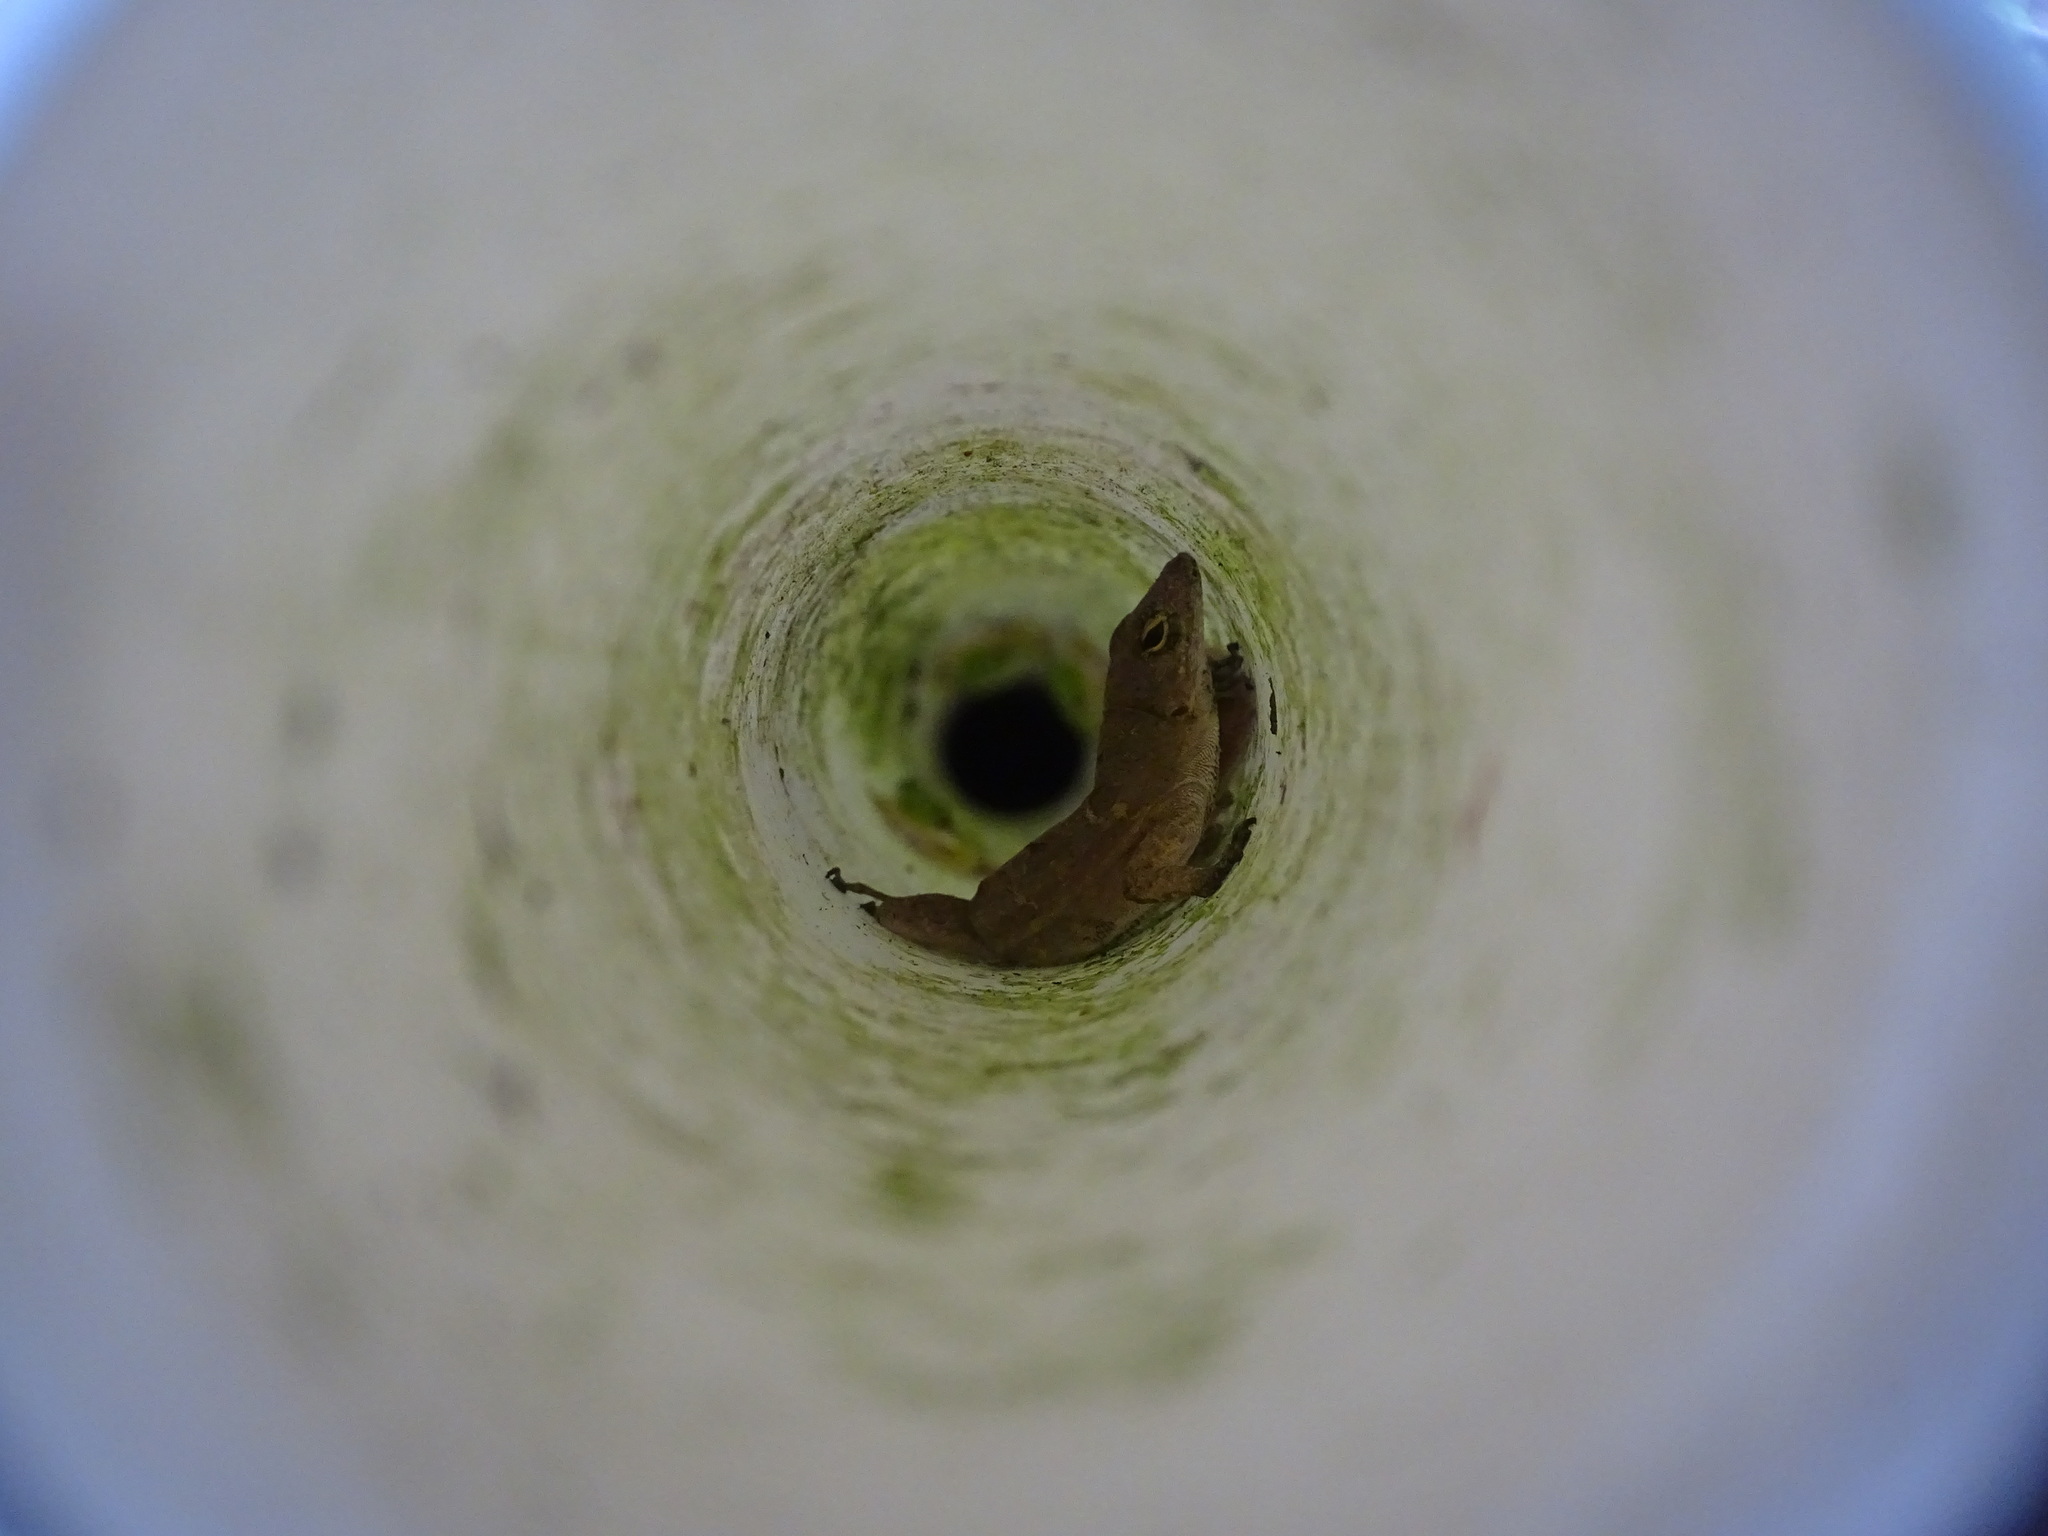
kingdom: Animalia
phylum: Chordata
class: Squamata
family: Dactyloidae
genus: Anolis
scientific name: Anolis sagrei
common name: Brown anole
